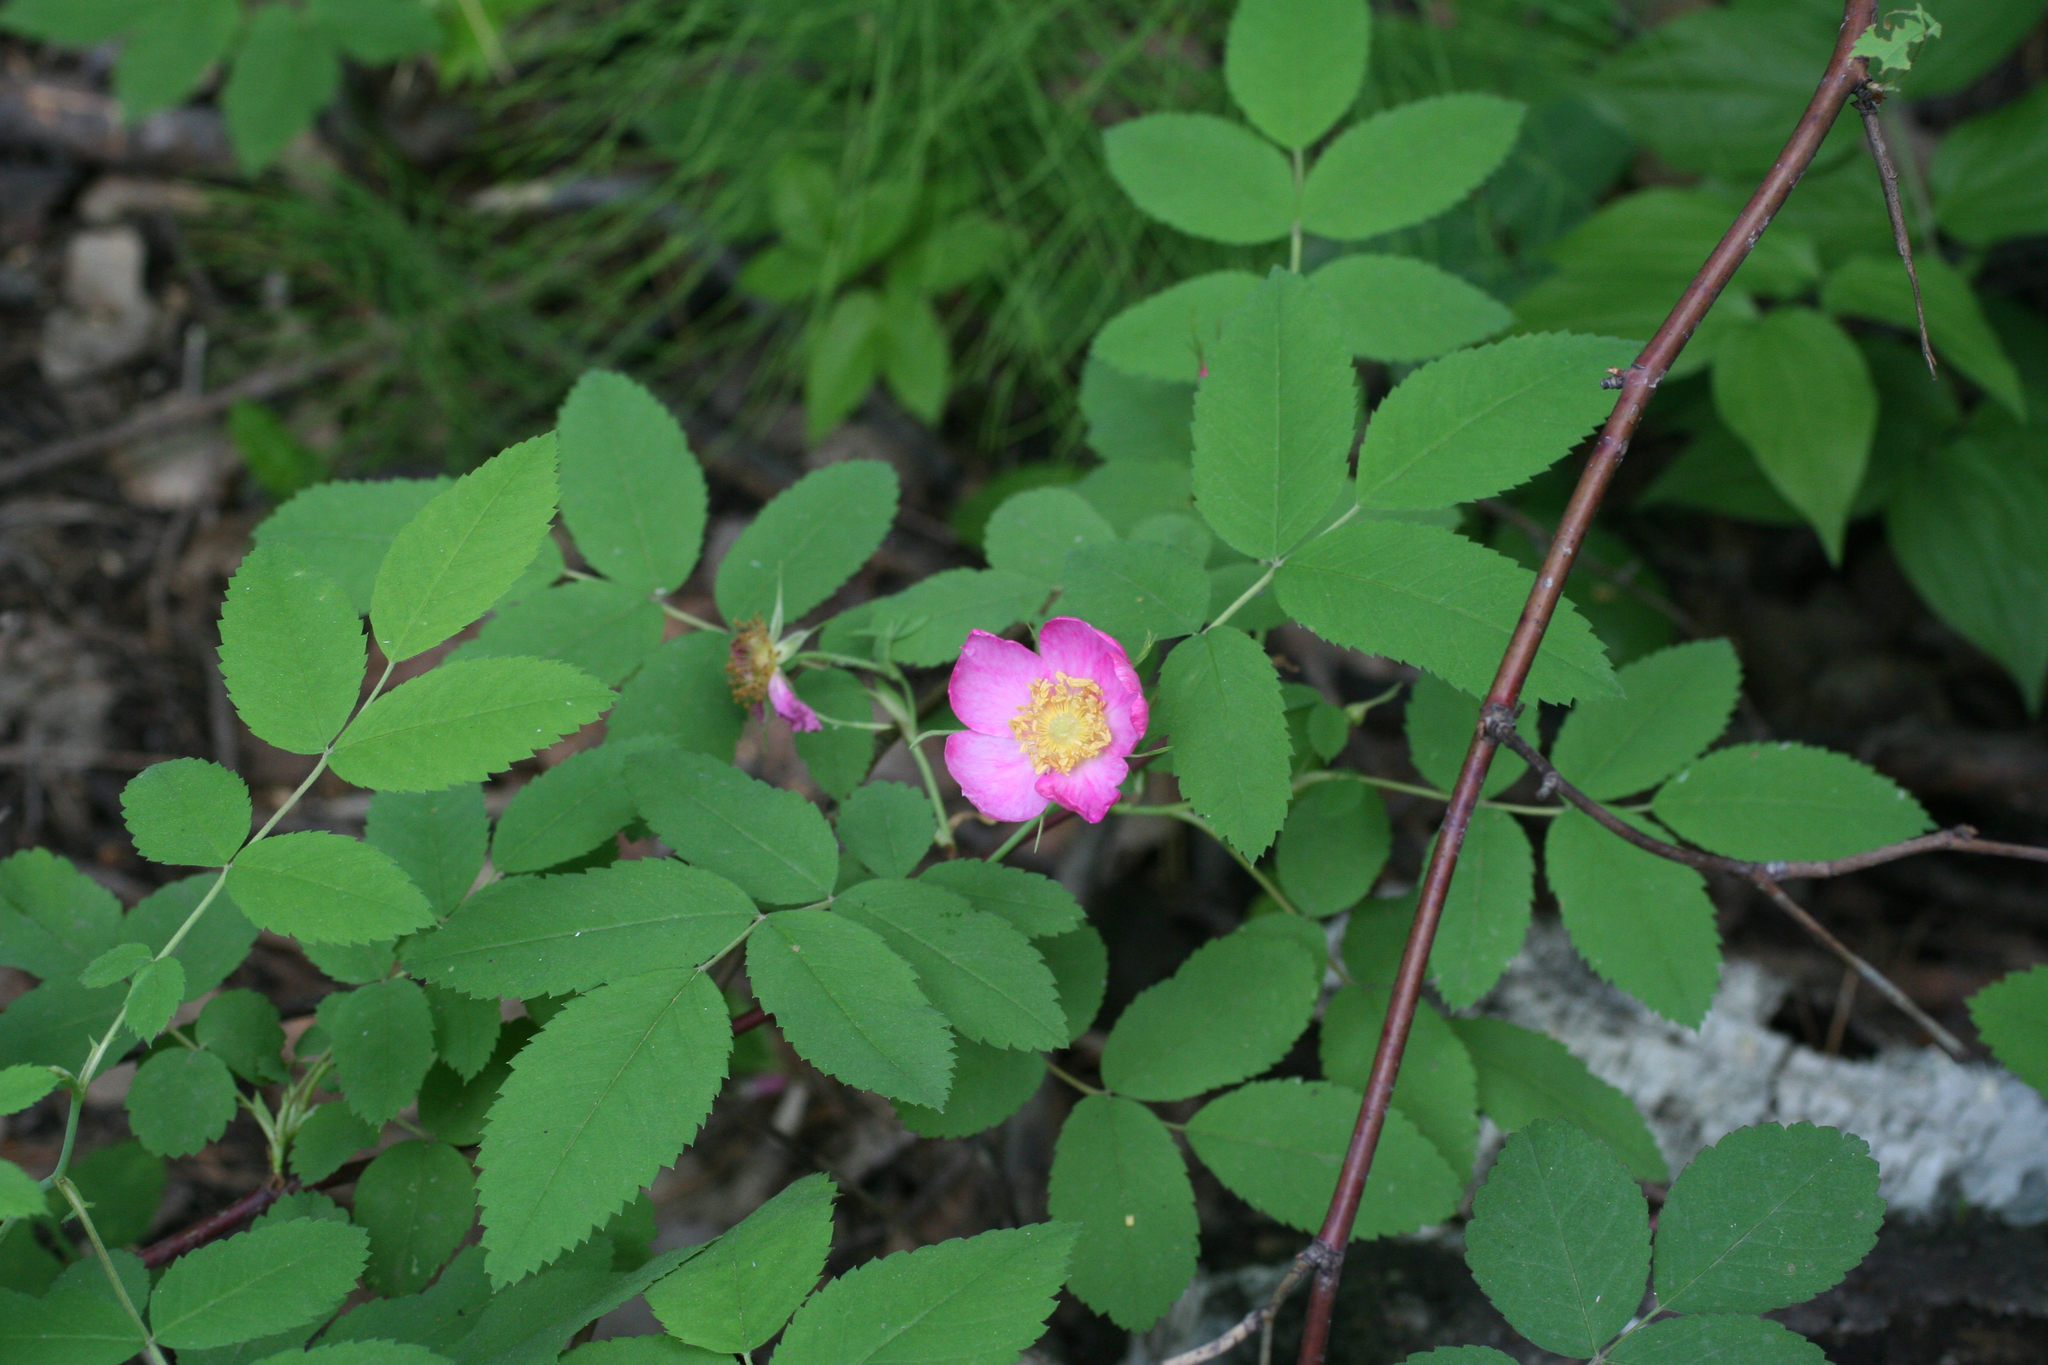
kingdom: Plantae
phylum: Tracheophyta
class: Magnoliopsida
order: Rosales
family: Rosaceae
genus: Rosa
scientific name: Rosa majalis
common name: Cinnamon rose
